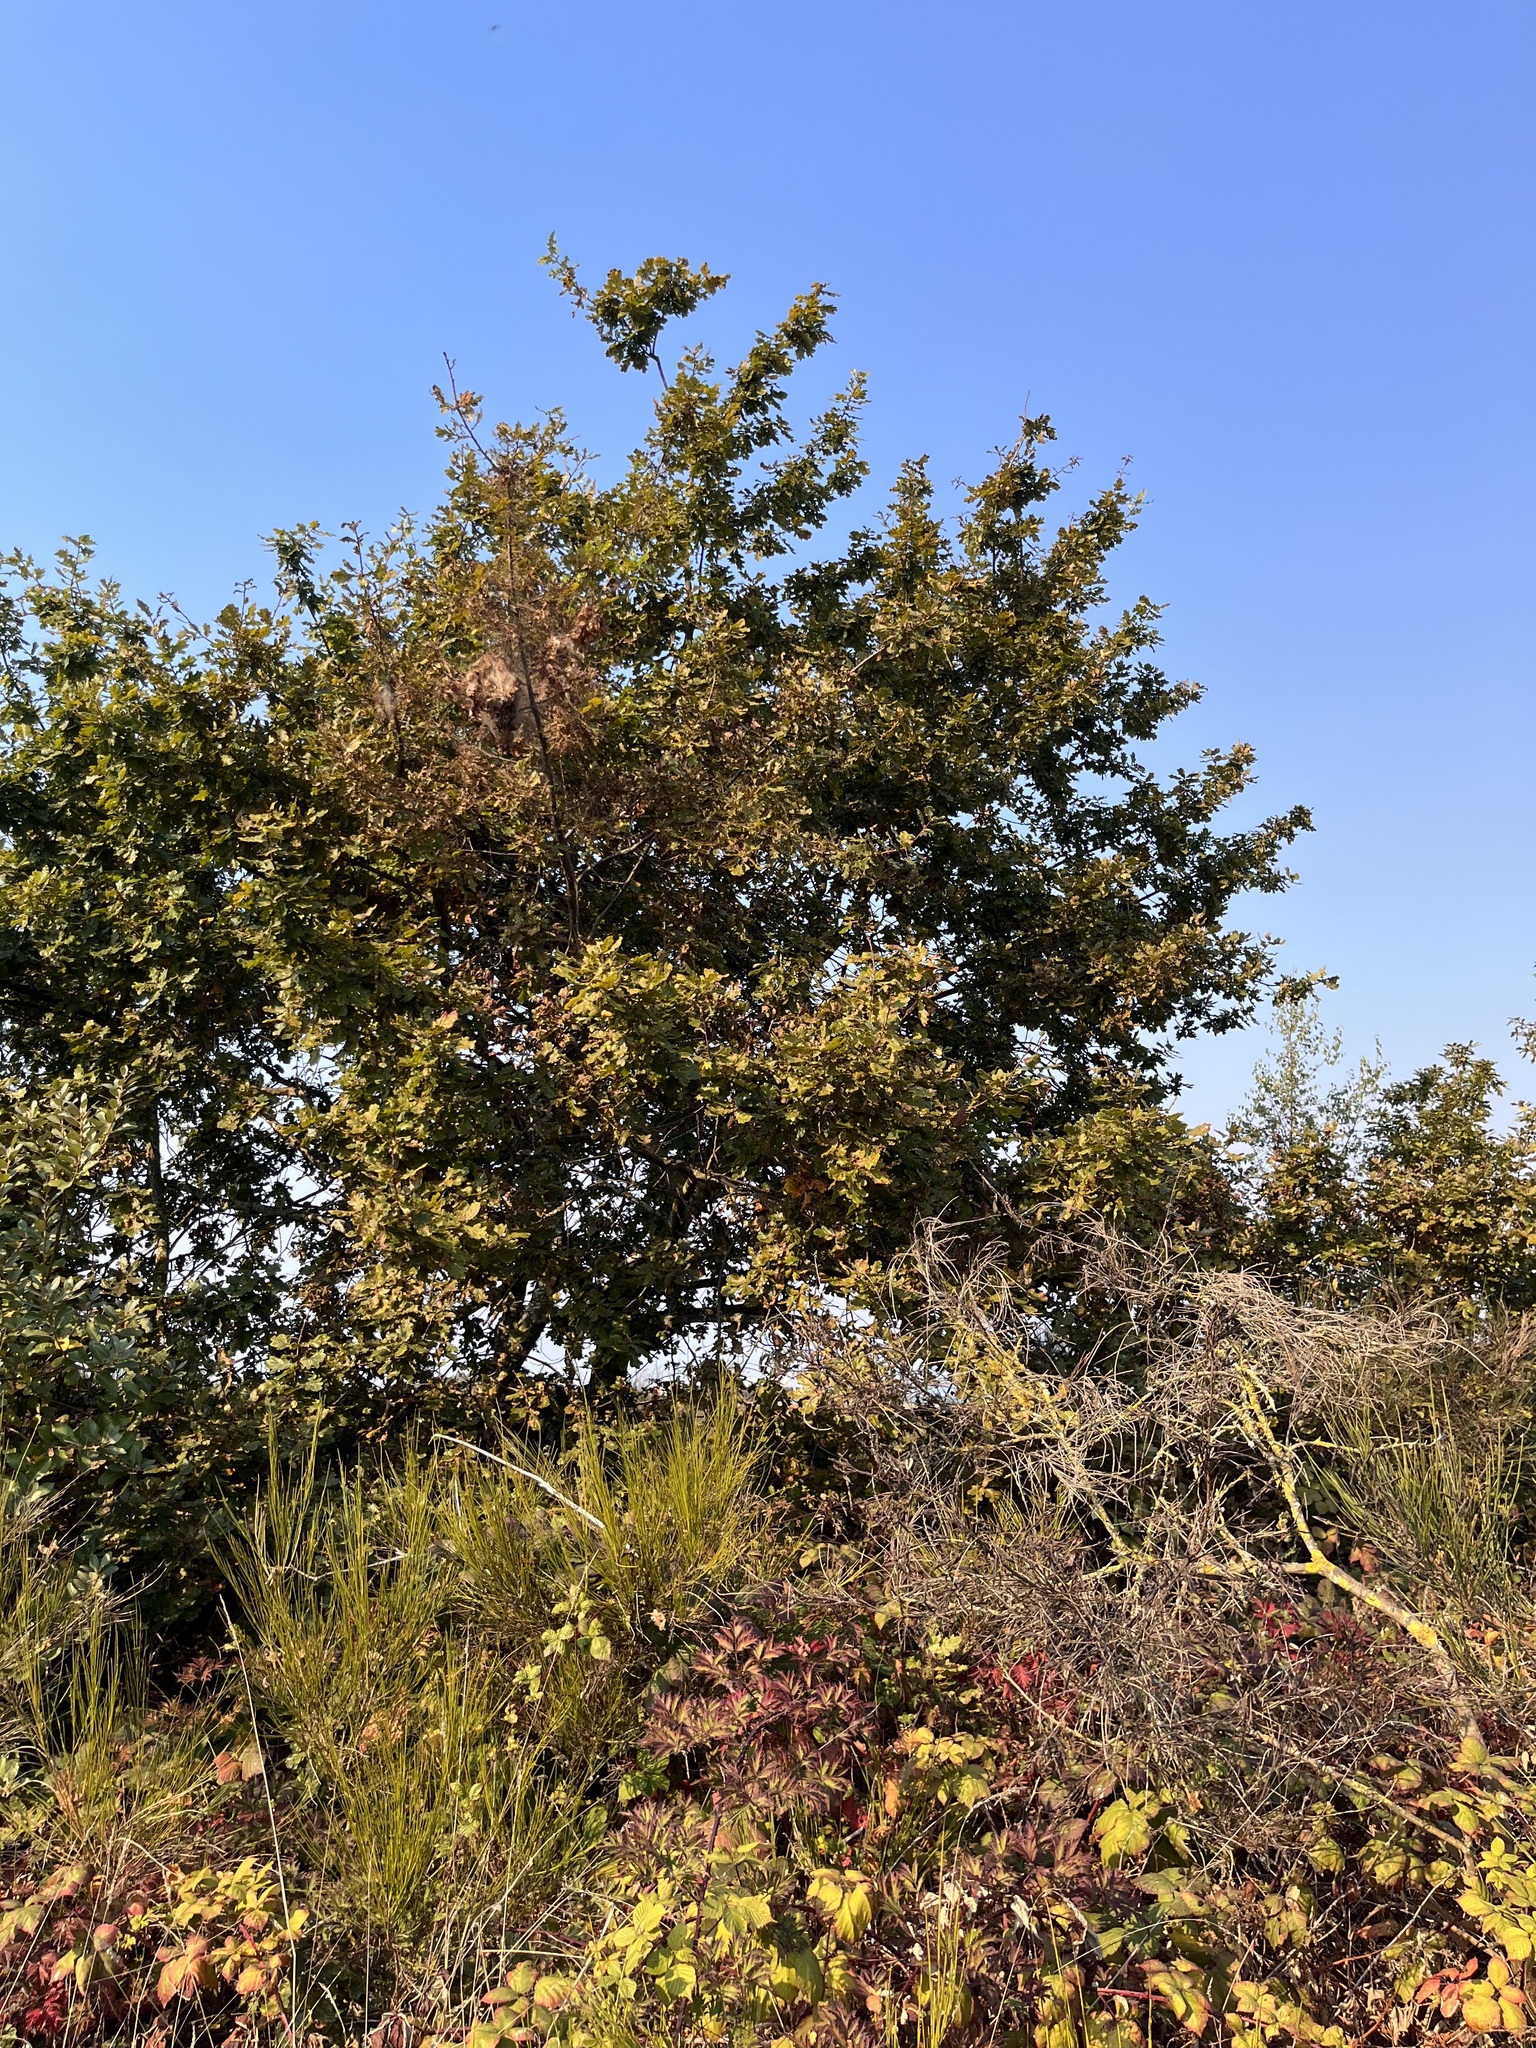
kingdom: Plantae
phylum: Tracheophyta
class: Magnoliopsida
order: Fagales
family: Fagaceae
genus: Quercus
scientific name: Quercus robur
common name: Pedunculate oak
